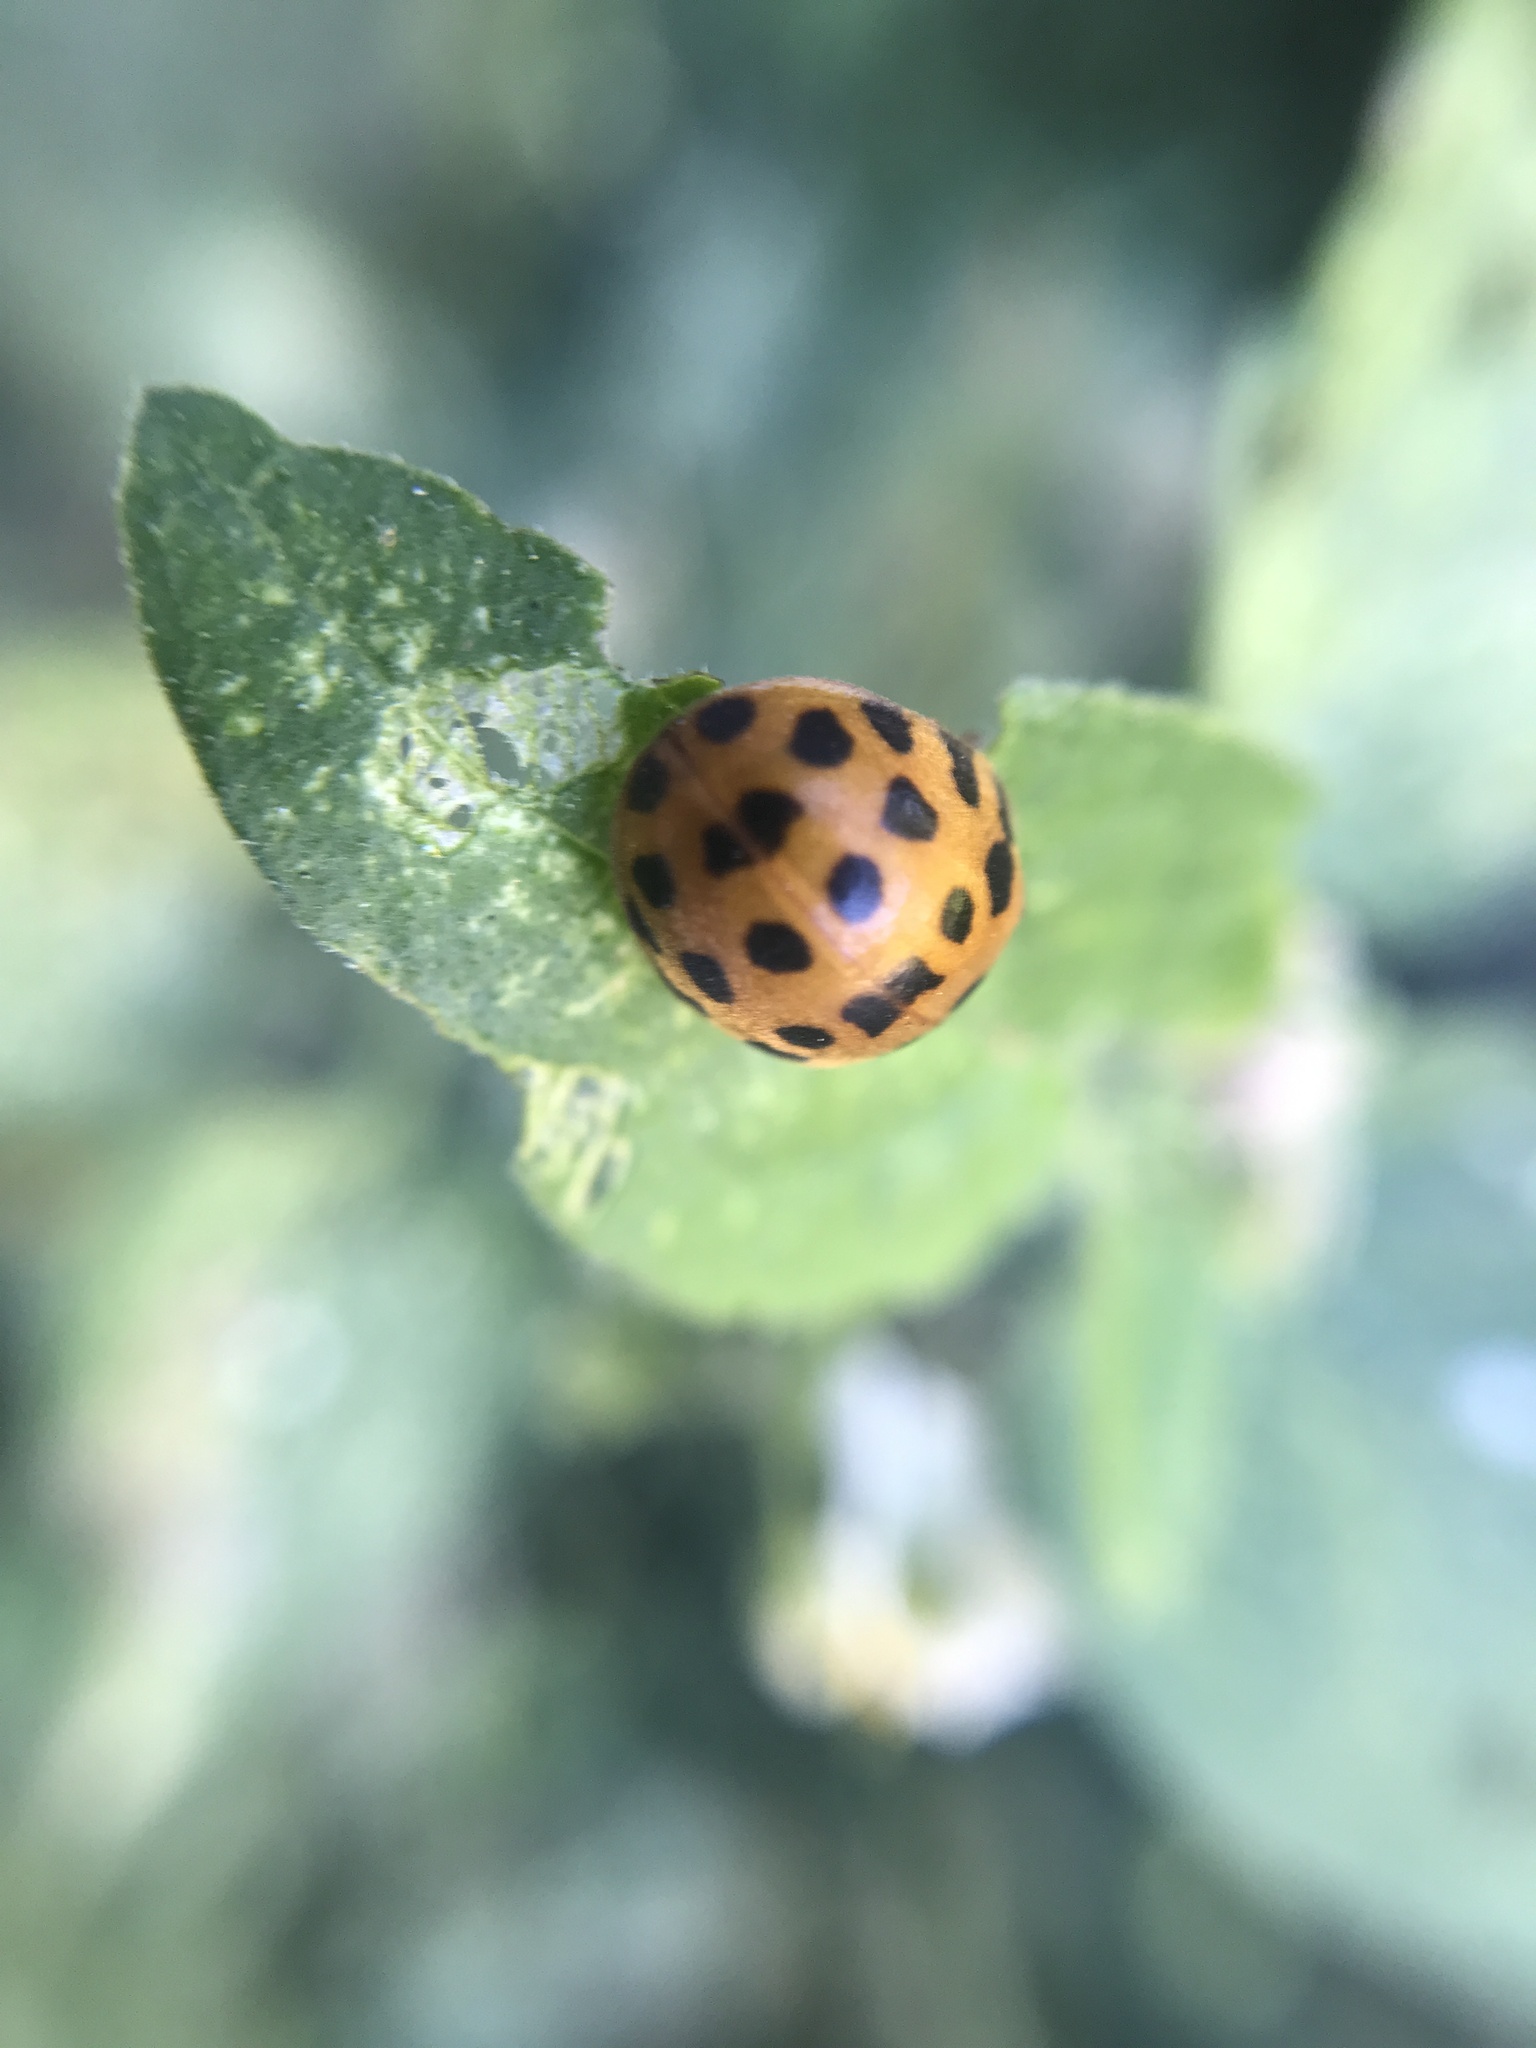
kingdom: Animalia
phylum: Arthropoda
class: Insecta
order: Coleoptera
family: Coccinellidae
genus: Henosepilachna
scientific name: Henosepilachna vigintioctopunctata
